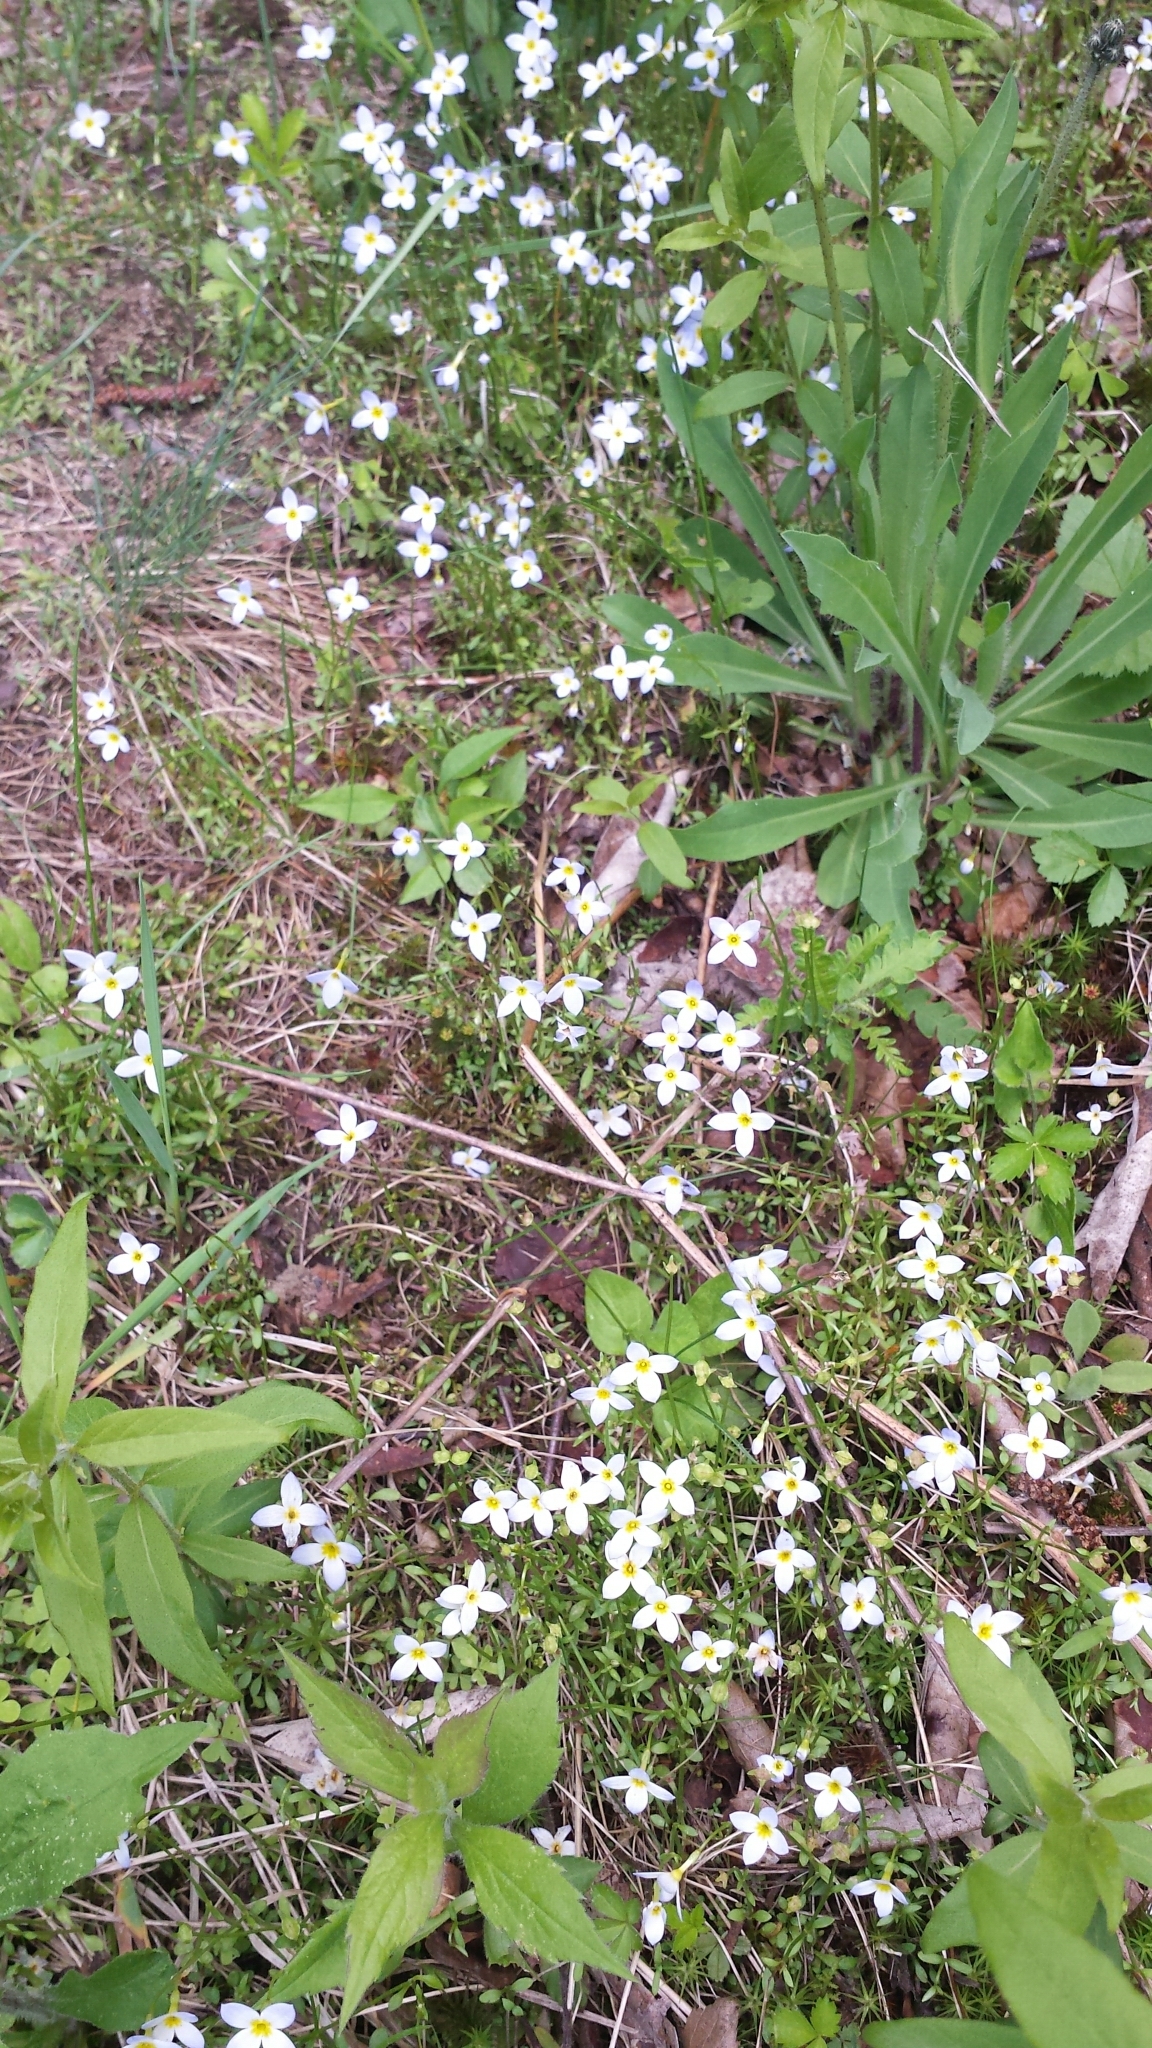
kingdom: Plantae
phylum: Tracheophyta
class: Magnoliopsida
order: Gentianales
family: Rubiaceae
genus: Houstonia
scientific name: Houstonia caerulea
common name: Bluets
